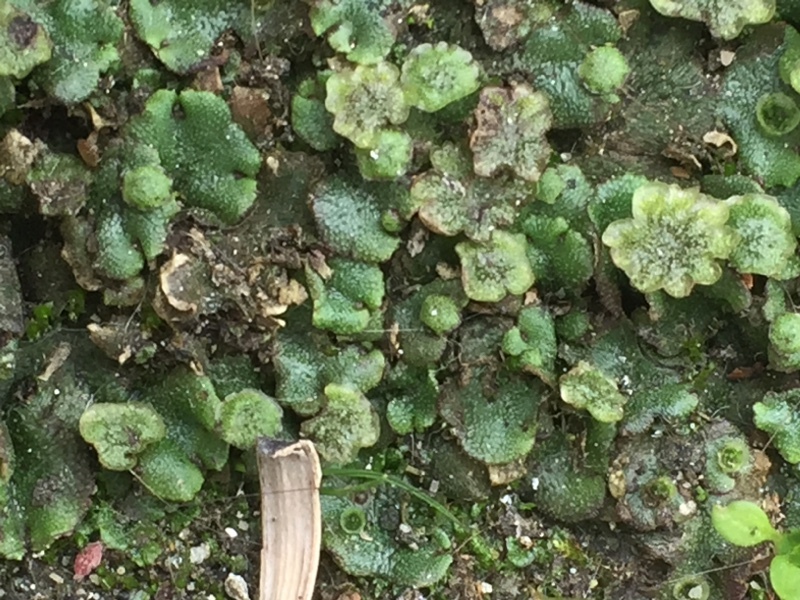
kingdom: Plantae
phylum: Marchantiophyta
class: Marchantiopsida
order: Marchantiales
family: Marchantiaceae
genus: Marchantia
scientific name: Marchantia polymorpha
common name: Common liverwort
